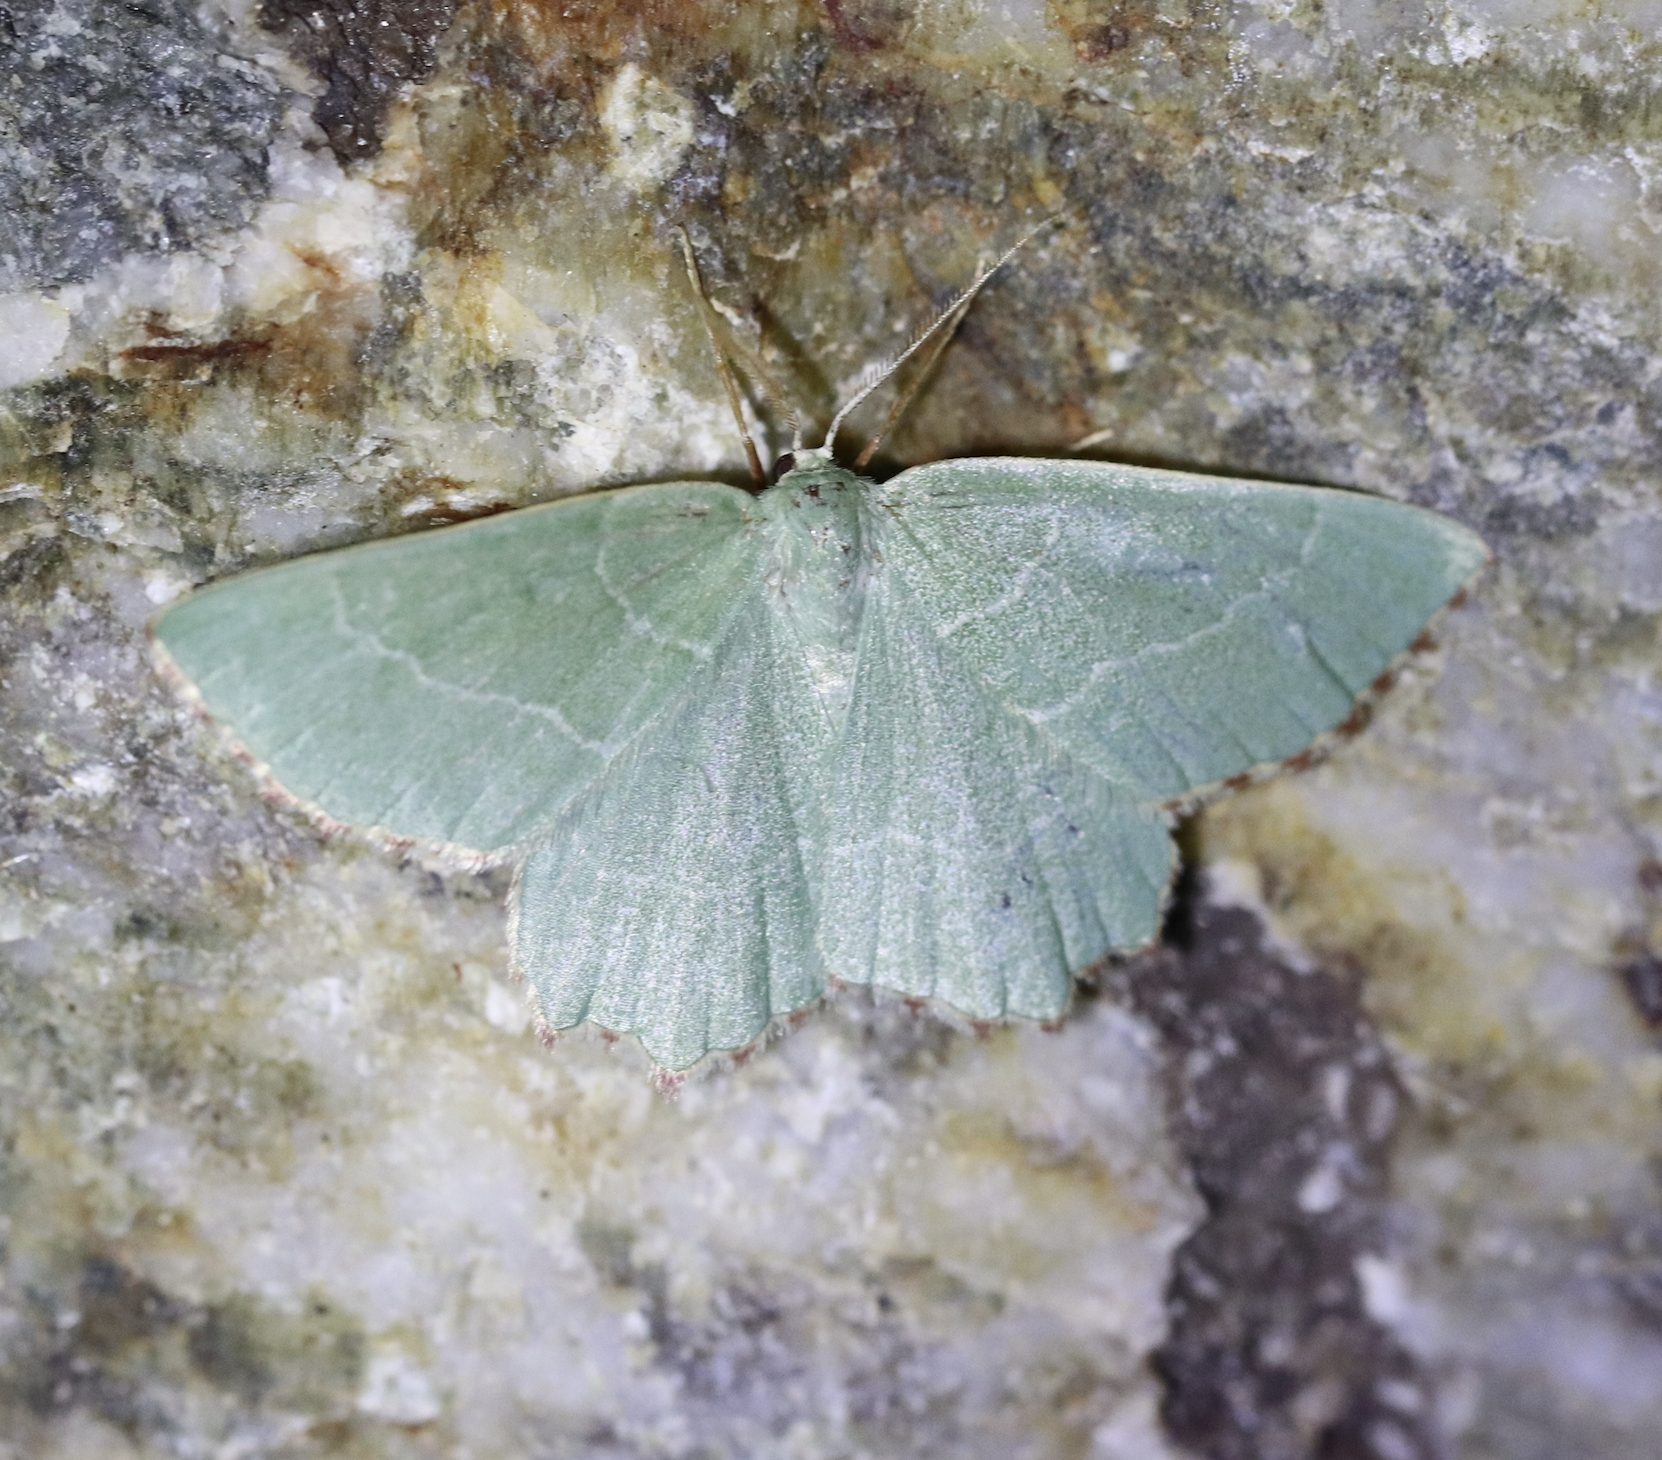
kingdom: Animalia
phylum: Arthropoda
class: Insecta
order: Lepidoptera
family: Geometridae
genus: Thalera
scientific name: Thalera fimbrialis
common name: Sussex emerald
